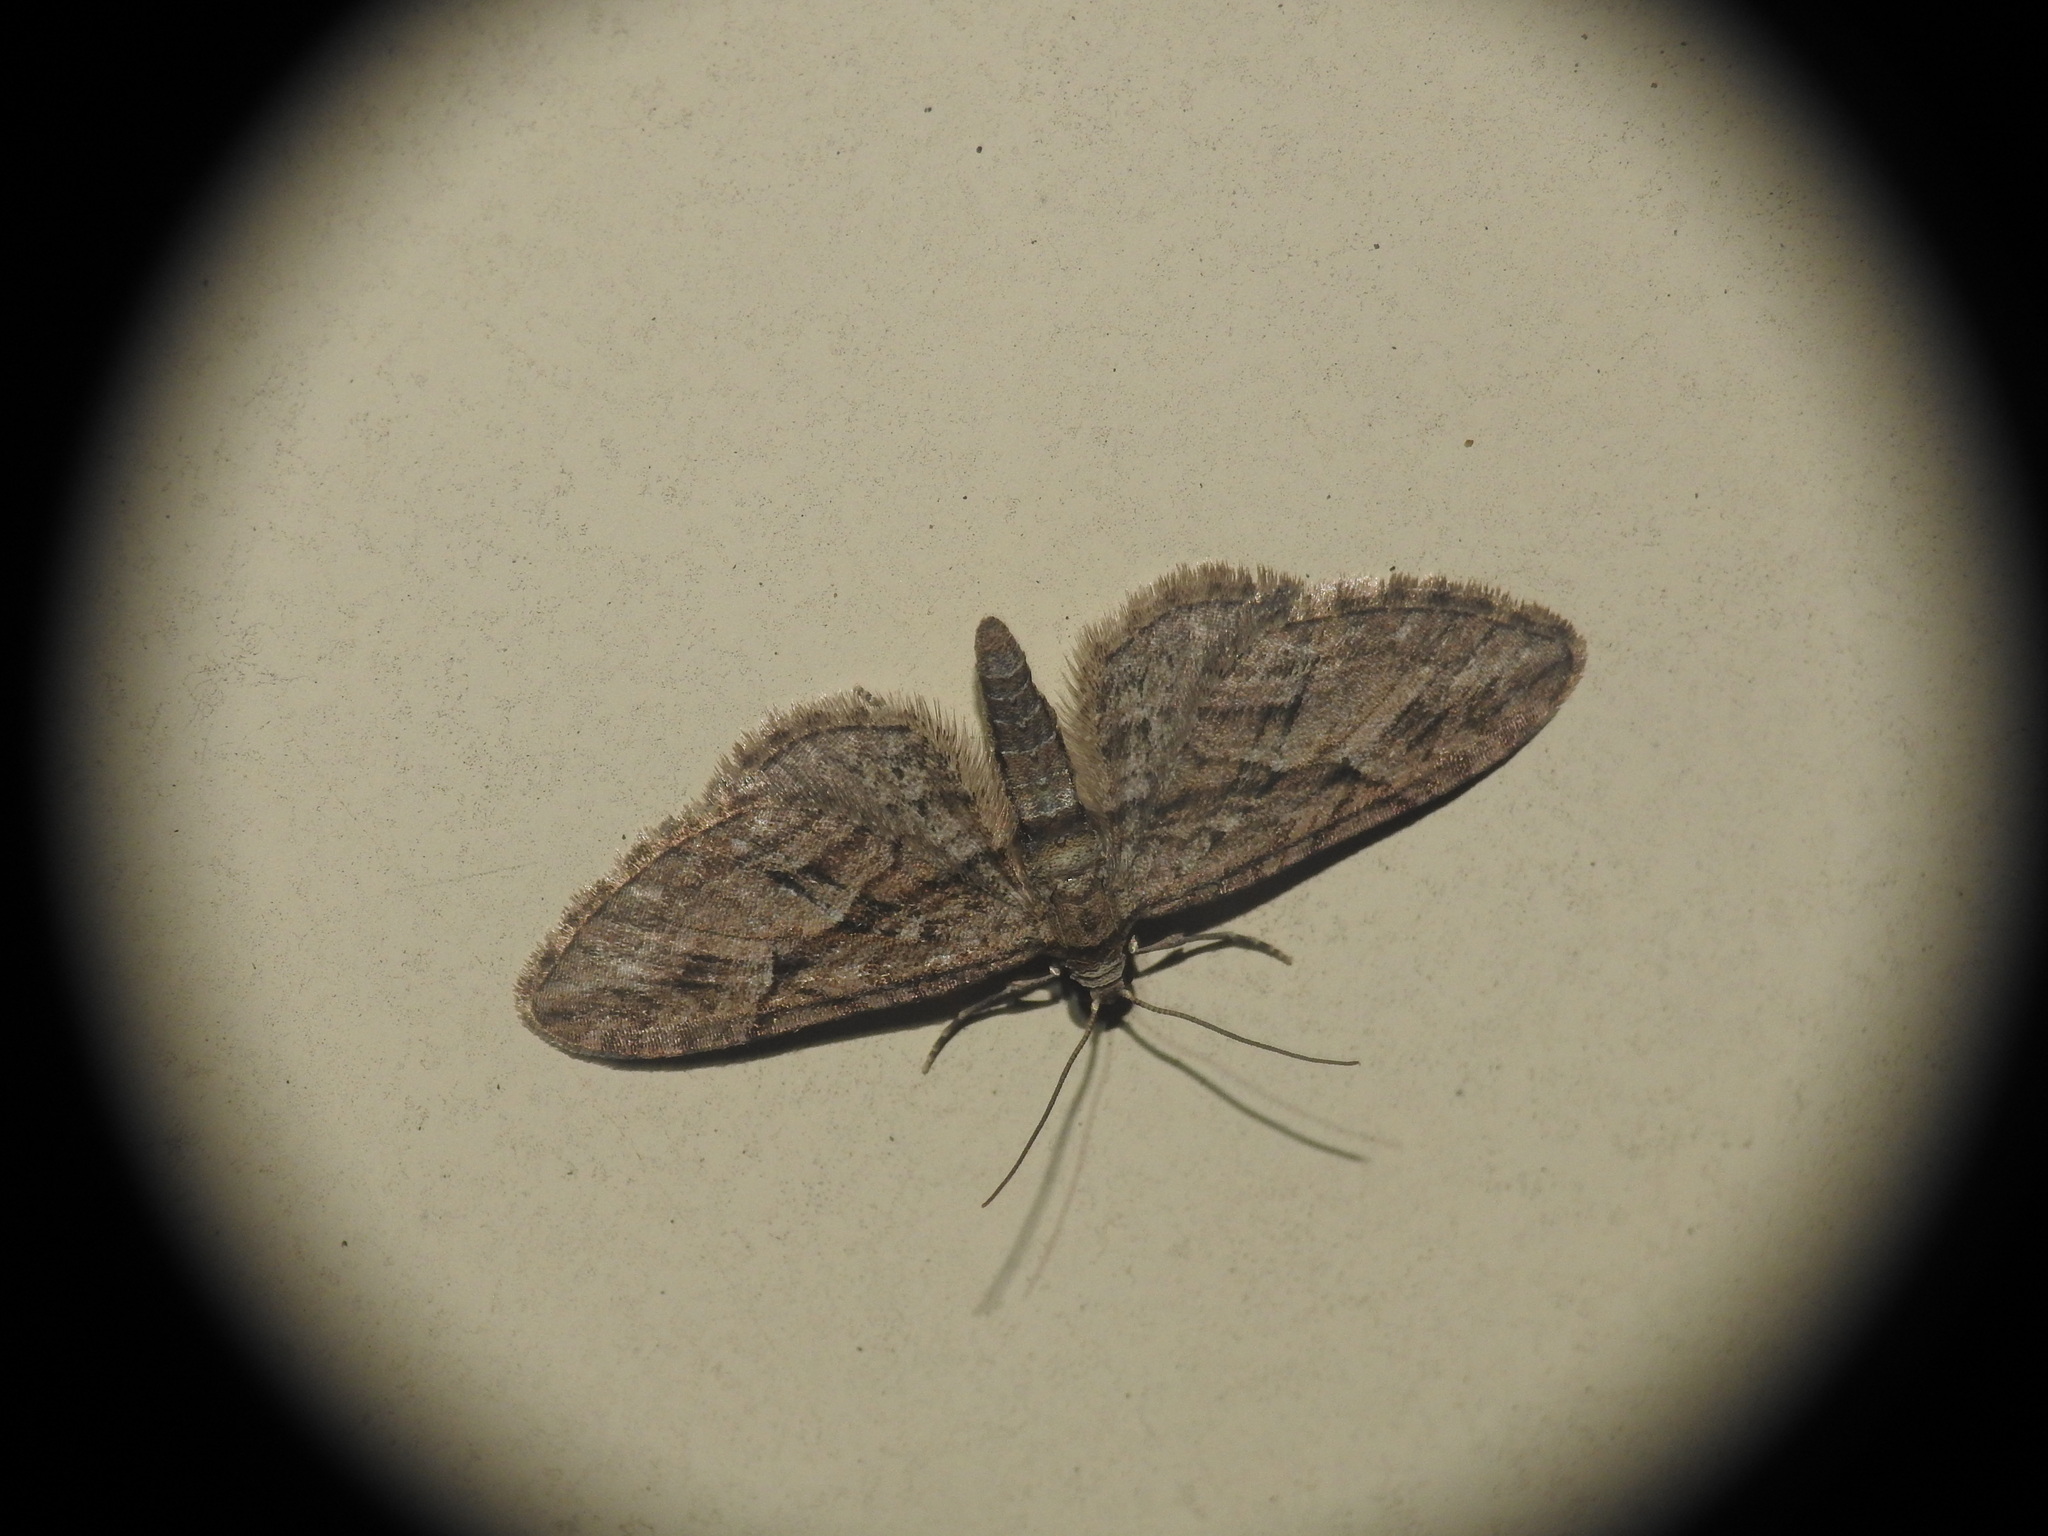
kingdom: Animalia
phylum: Arthropoda
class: Insecta
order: Lepidoptera
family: Geometridae
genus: Eupithecia
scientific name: Eupithecia oxycedrata
